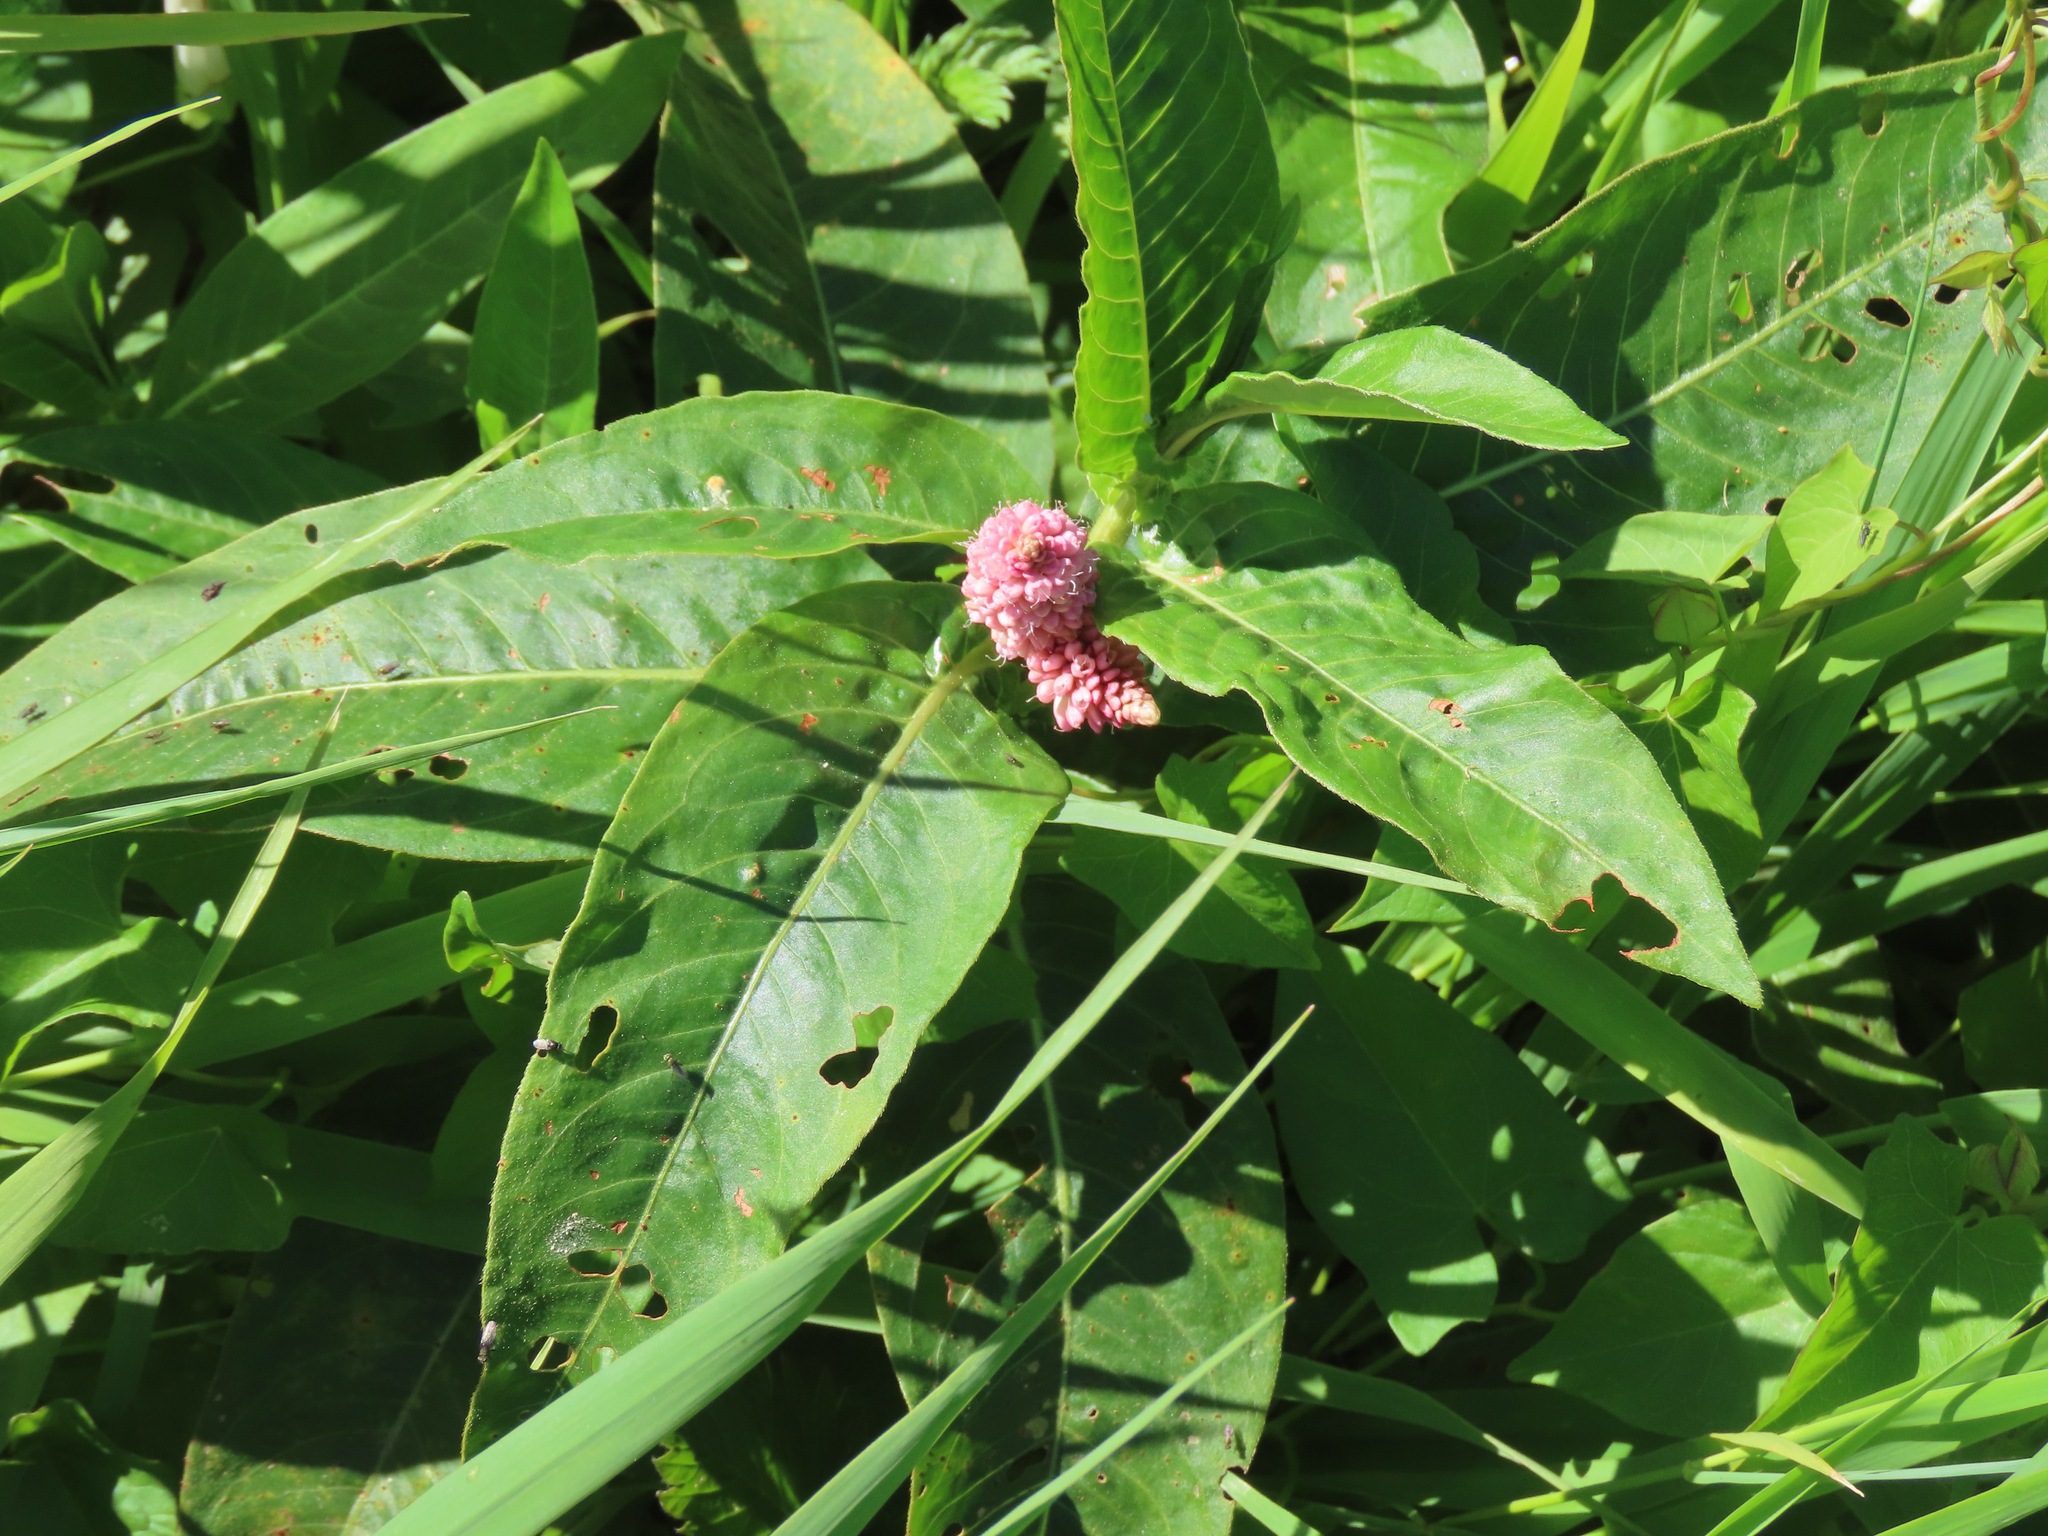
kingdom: Plantae
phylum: Tracheophyta
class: Magnoliopsida
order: Caryophyllales
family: Polygonaceae
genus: Persicaria
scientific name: Persicaria amphibia
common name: Amphibious bistort
